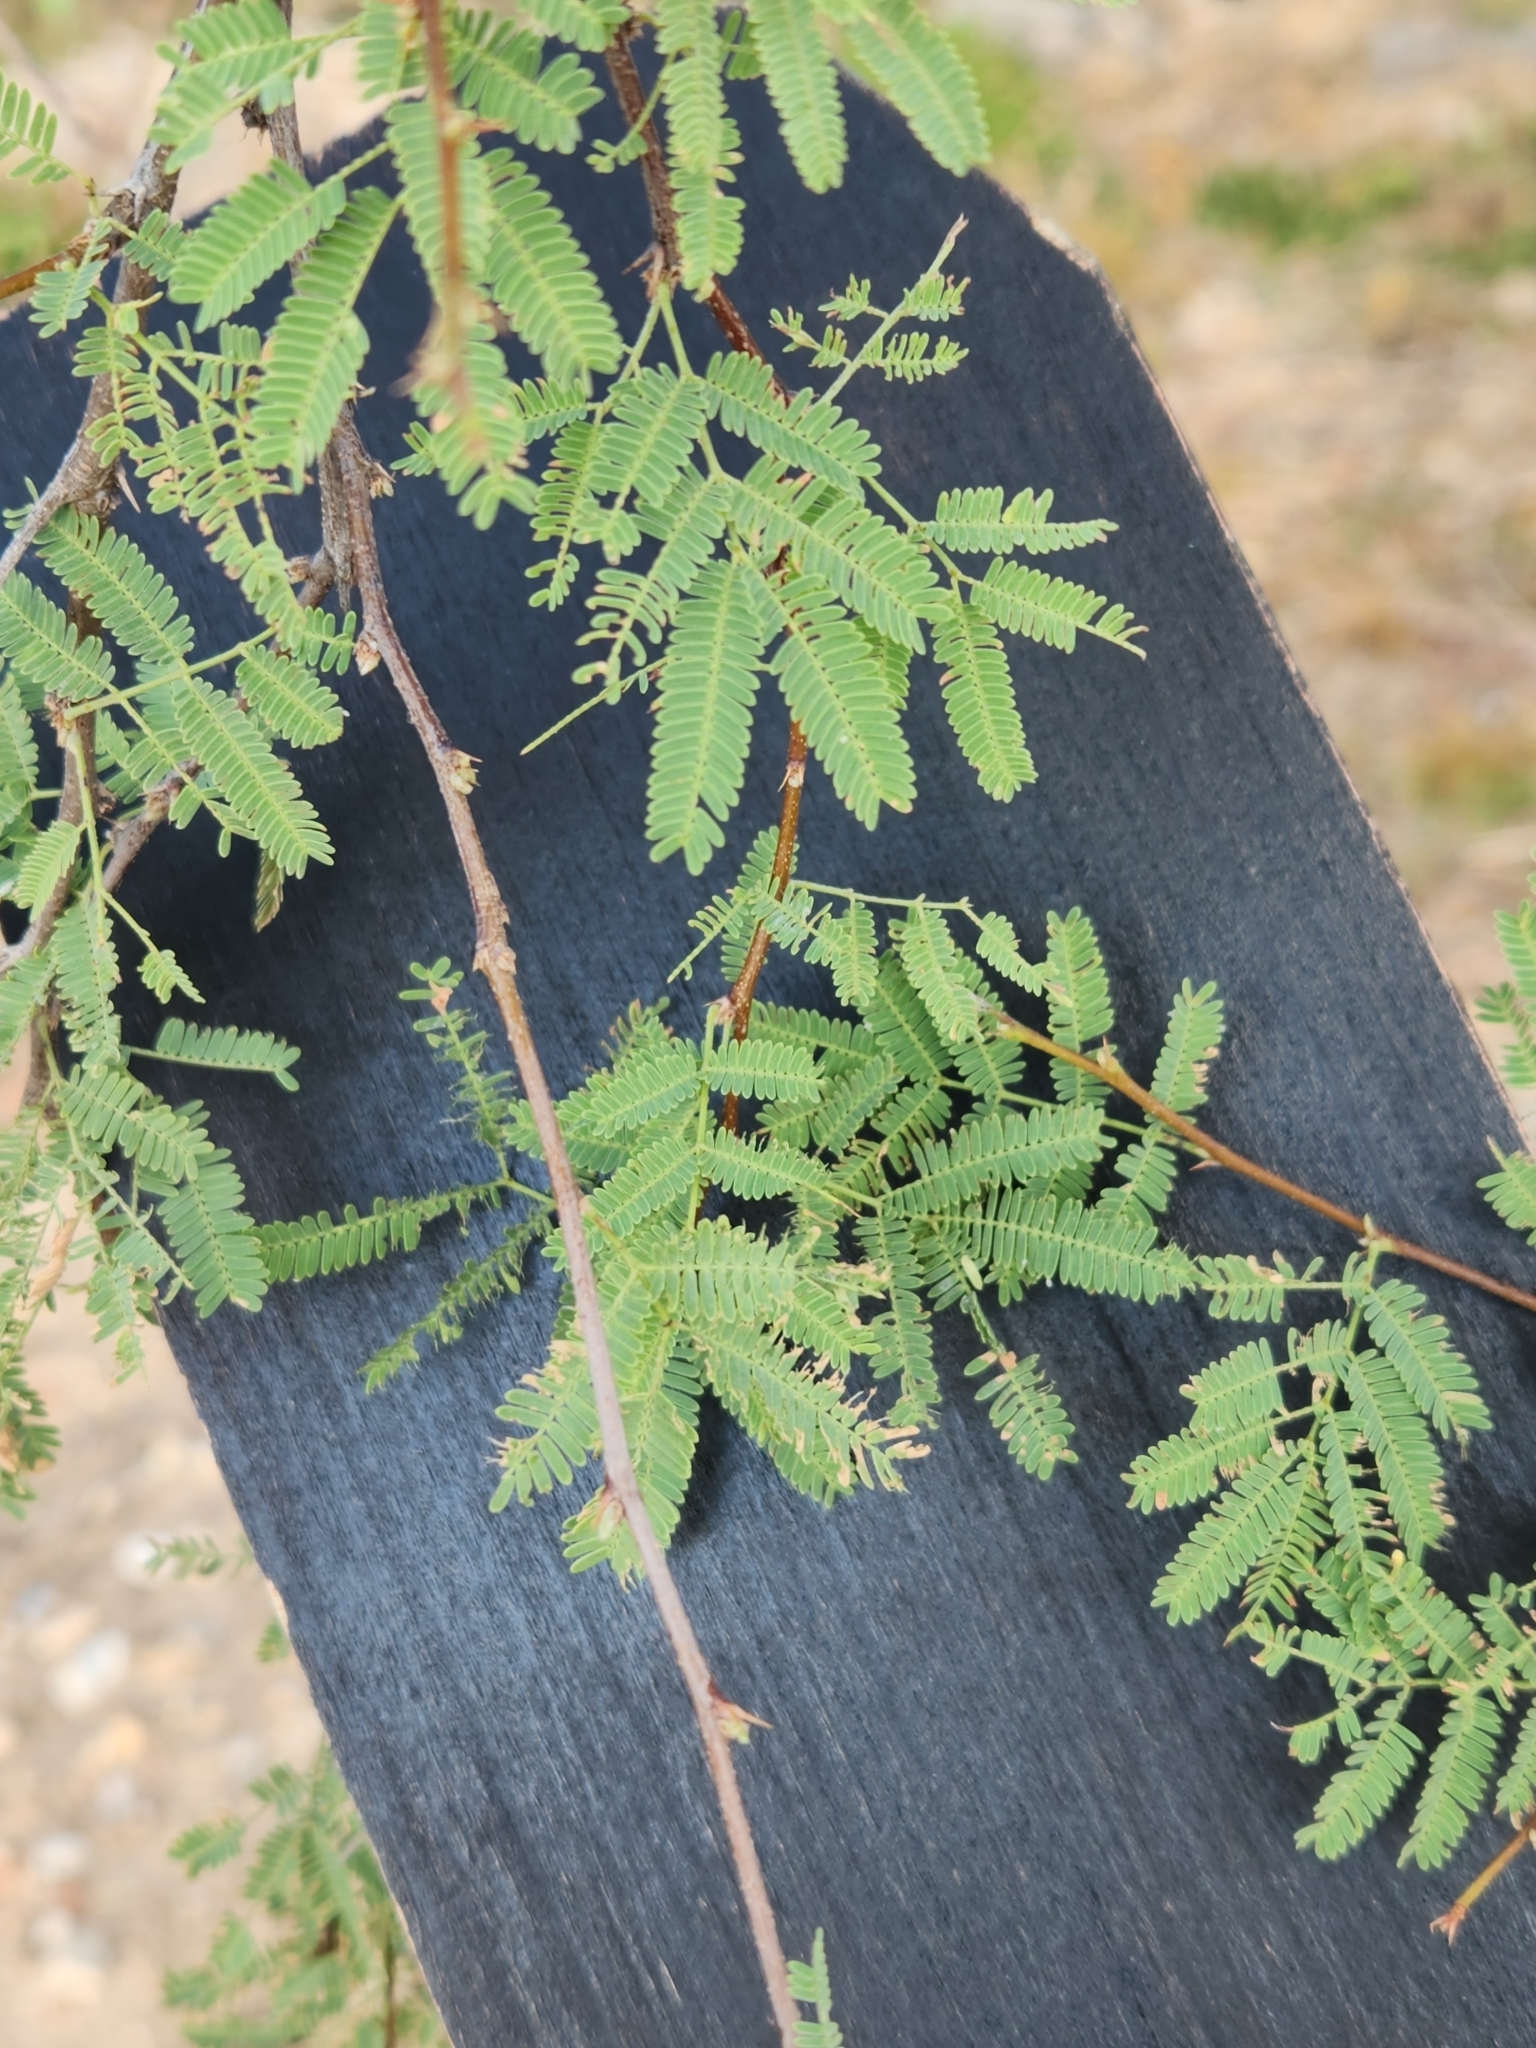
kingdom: Plantae
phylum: Tracheophyta
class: Magnoliopsida
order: Fabales
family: Fabaceae
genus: Vachellia
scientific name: Vachellia farnesiana
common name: Sweet acacia
